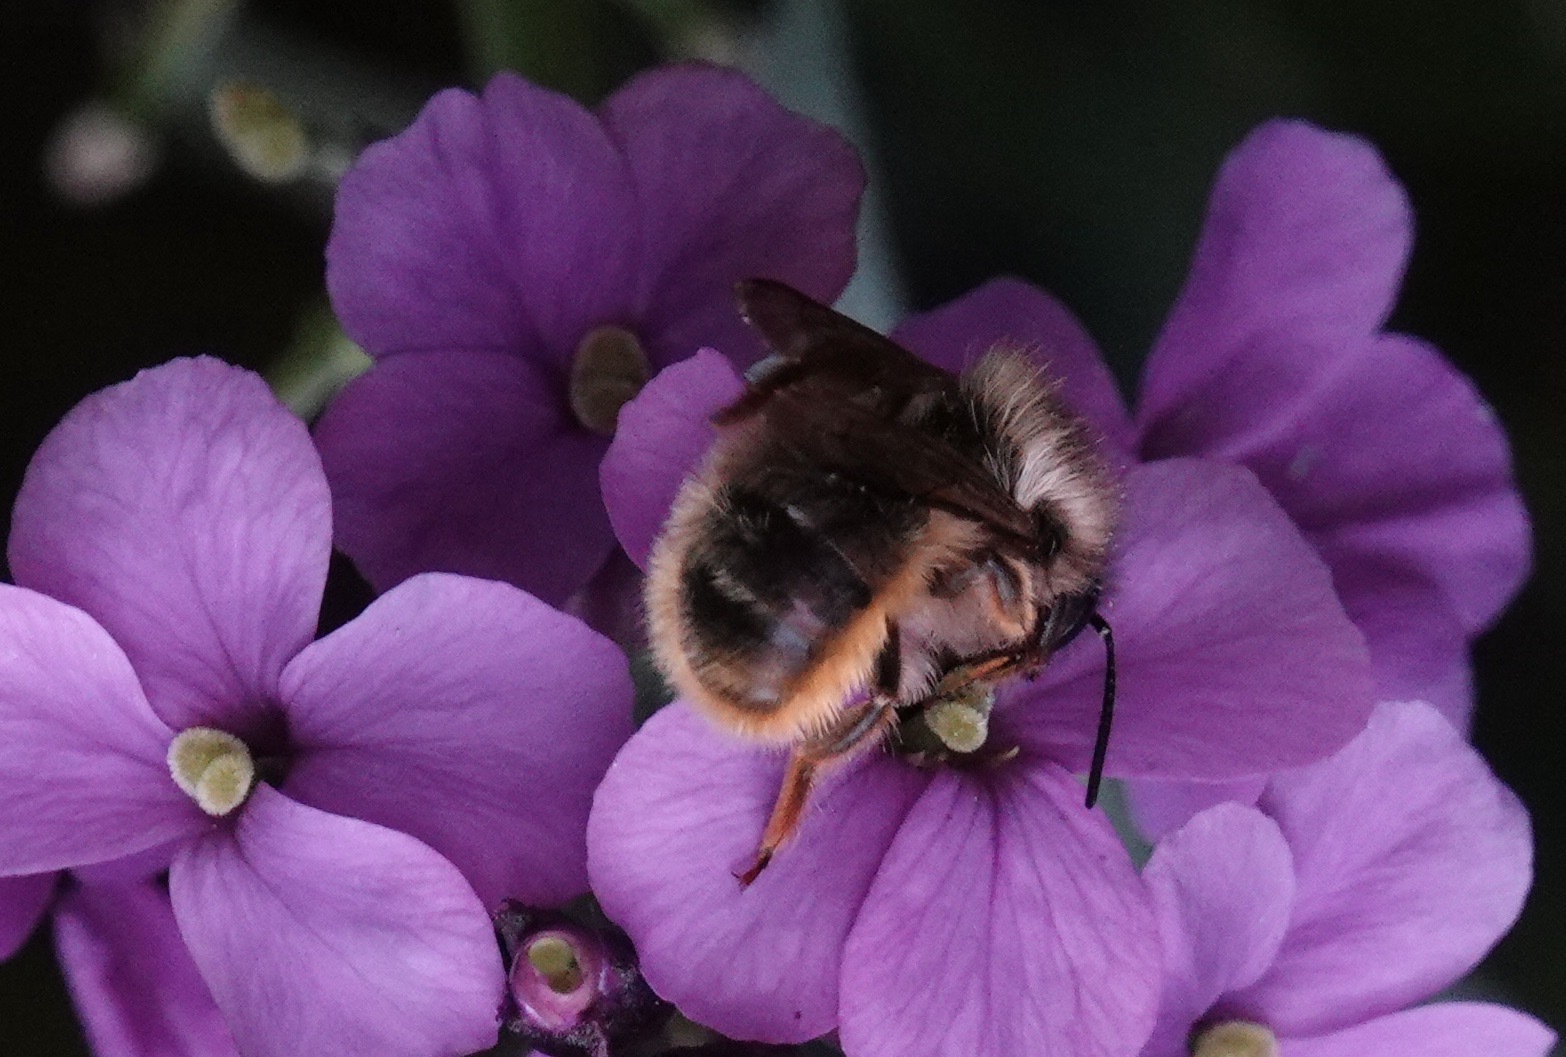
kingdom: Animalia
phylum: Arthropoda
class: Insecta
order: Hymenoptera
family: Megachilidae
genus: Osmia
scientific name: Osmia bicornis
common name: Red mason bee
